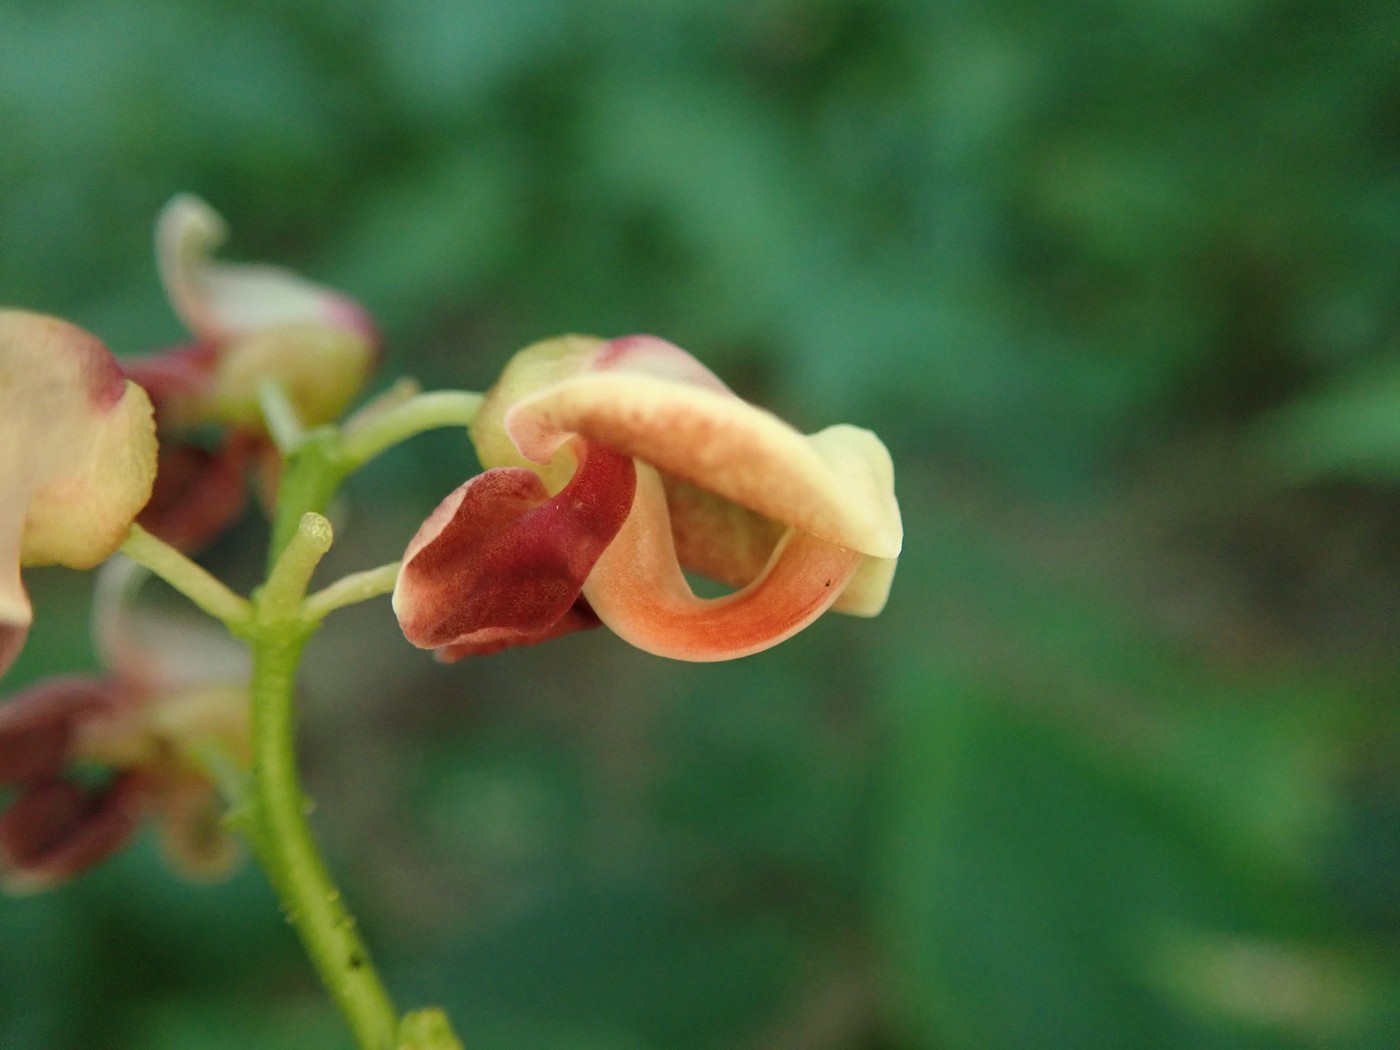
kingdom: Plantae
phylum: Tracheophyta
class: Magnoliopsida
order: Fabales
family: Fabaceae
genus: Apios
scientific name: Apios americana
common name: American potato-bean
